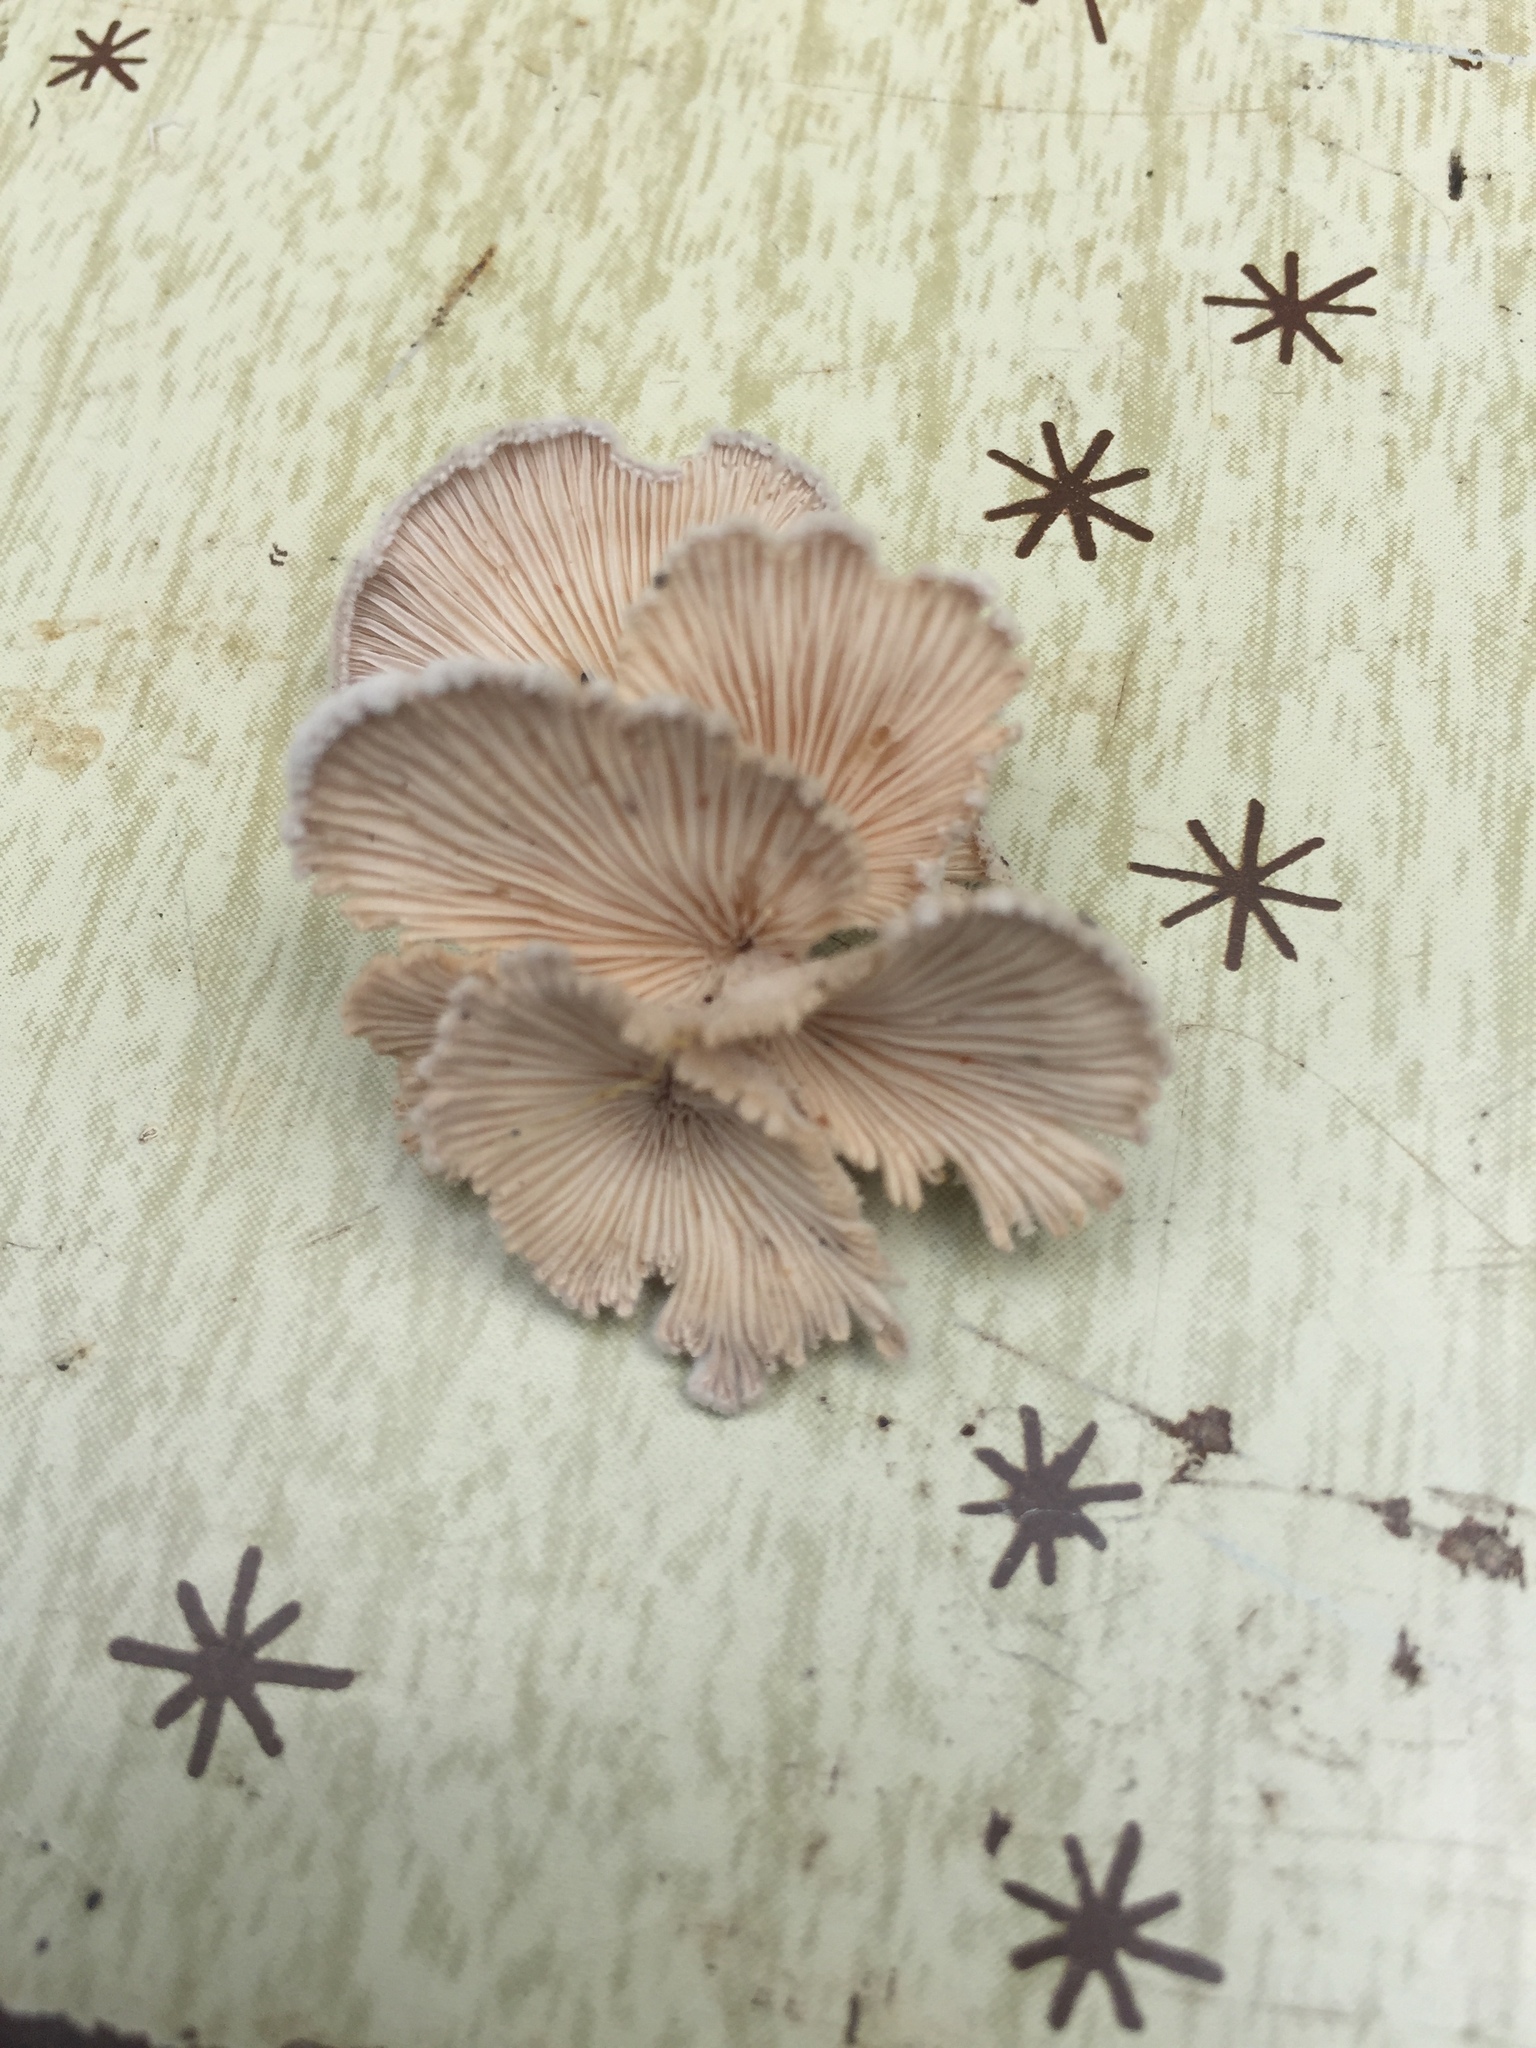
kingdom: Fungi
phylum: Basidiomycota
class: Agaricomycetes
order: Agaricales
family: Schizophyllaceae
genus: Schizophyllum
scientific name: Schizophyllum commune
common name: Common porecrust
